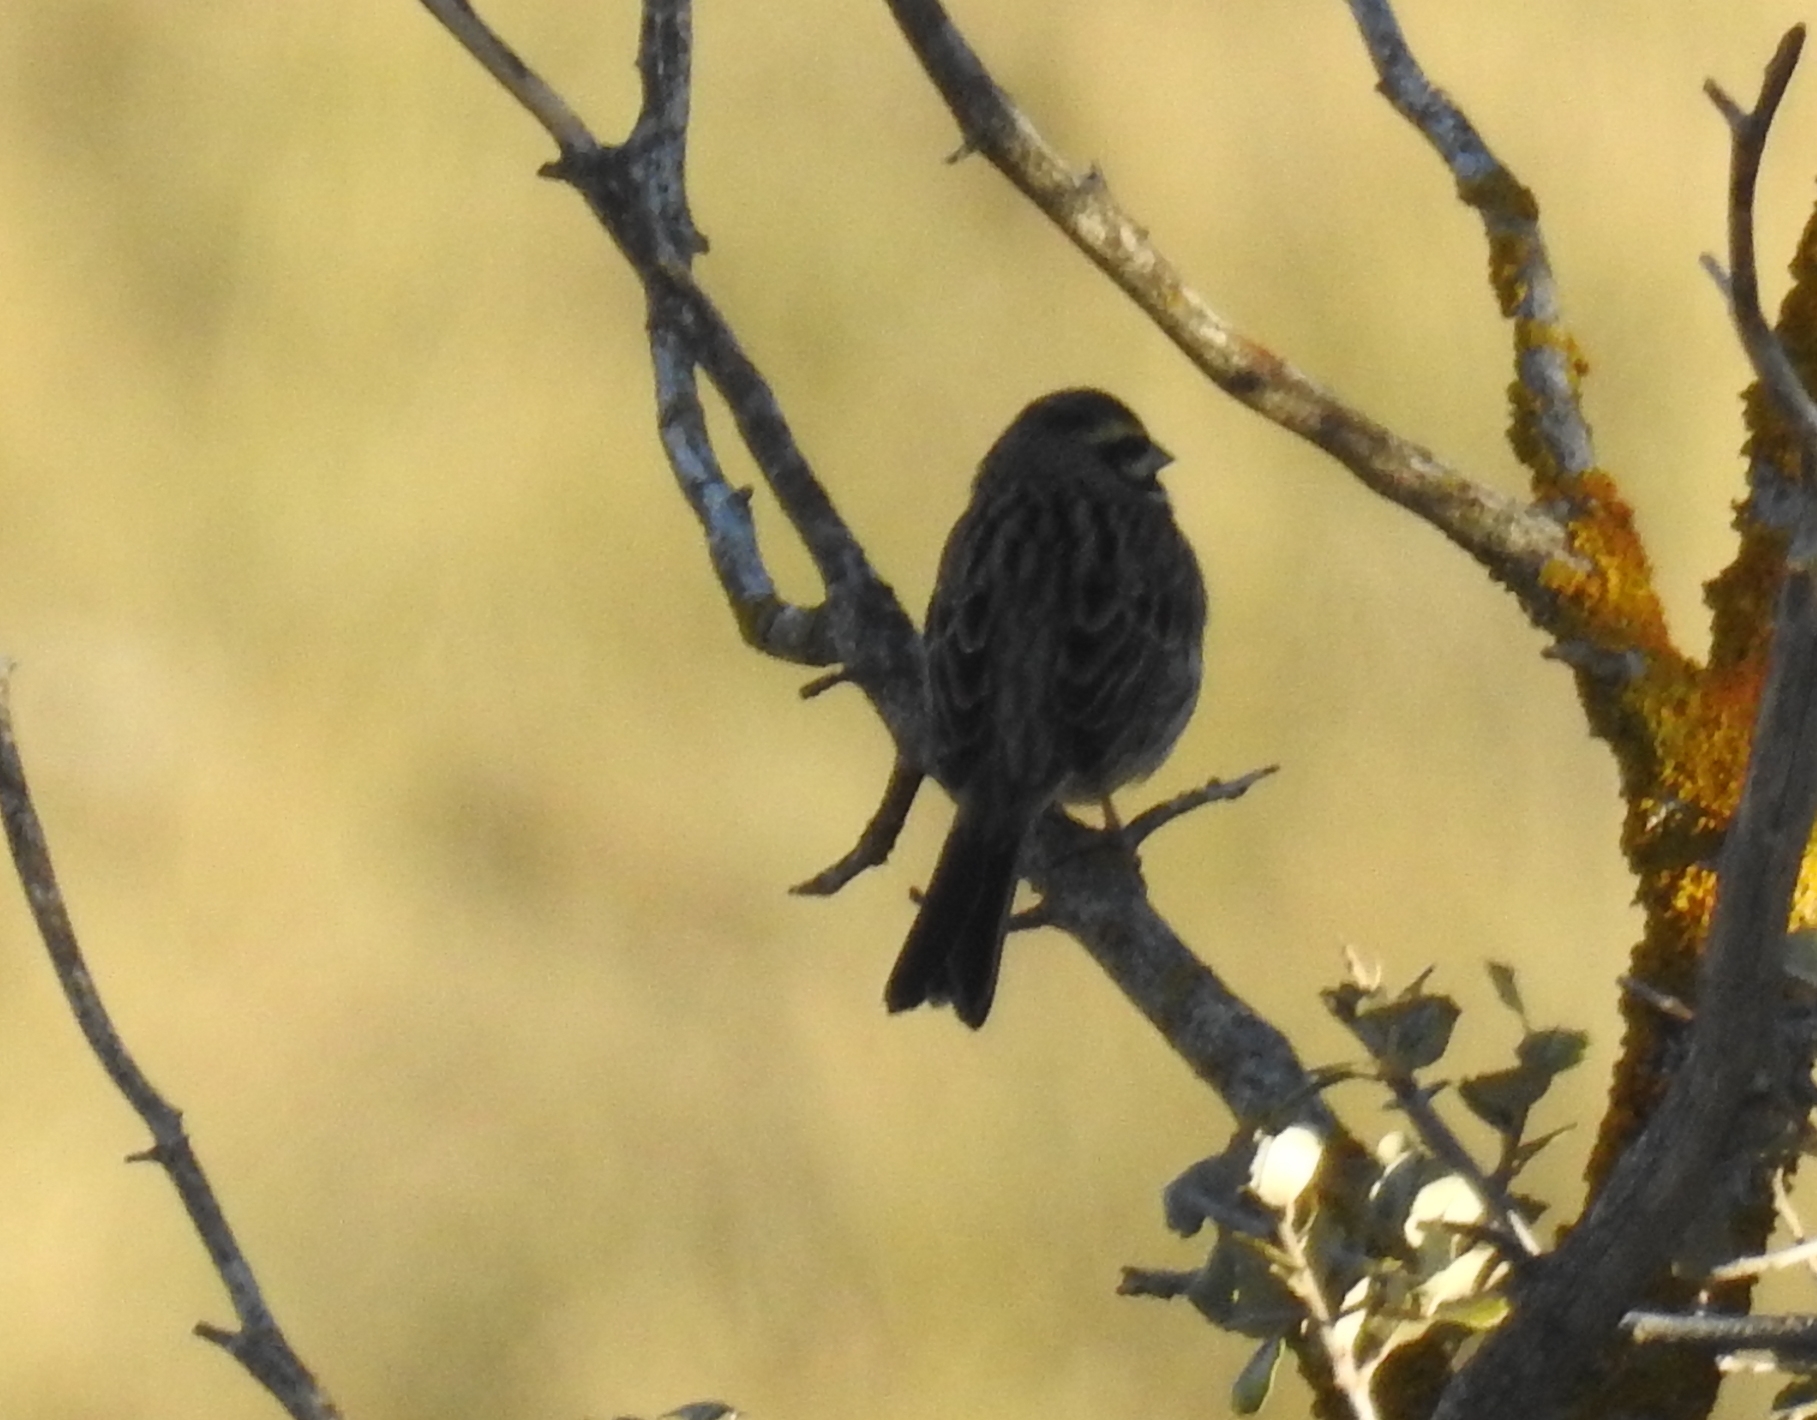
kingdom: Animalia
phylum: Chordata
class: Aves
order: Passeriformes
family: Emberizidae
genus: Emberiza
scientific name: Emberiza cirlus
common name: Cirl bunting
